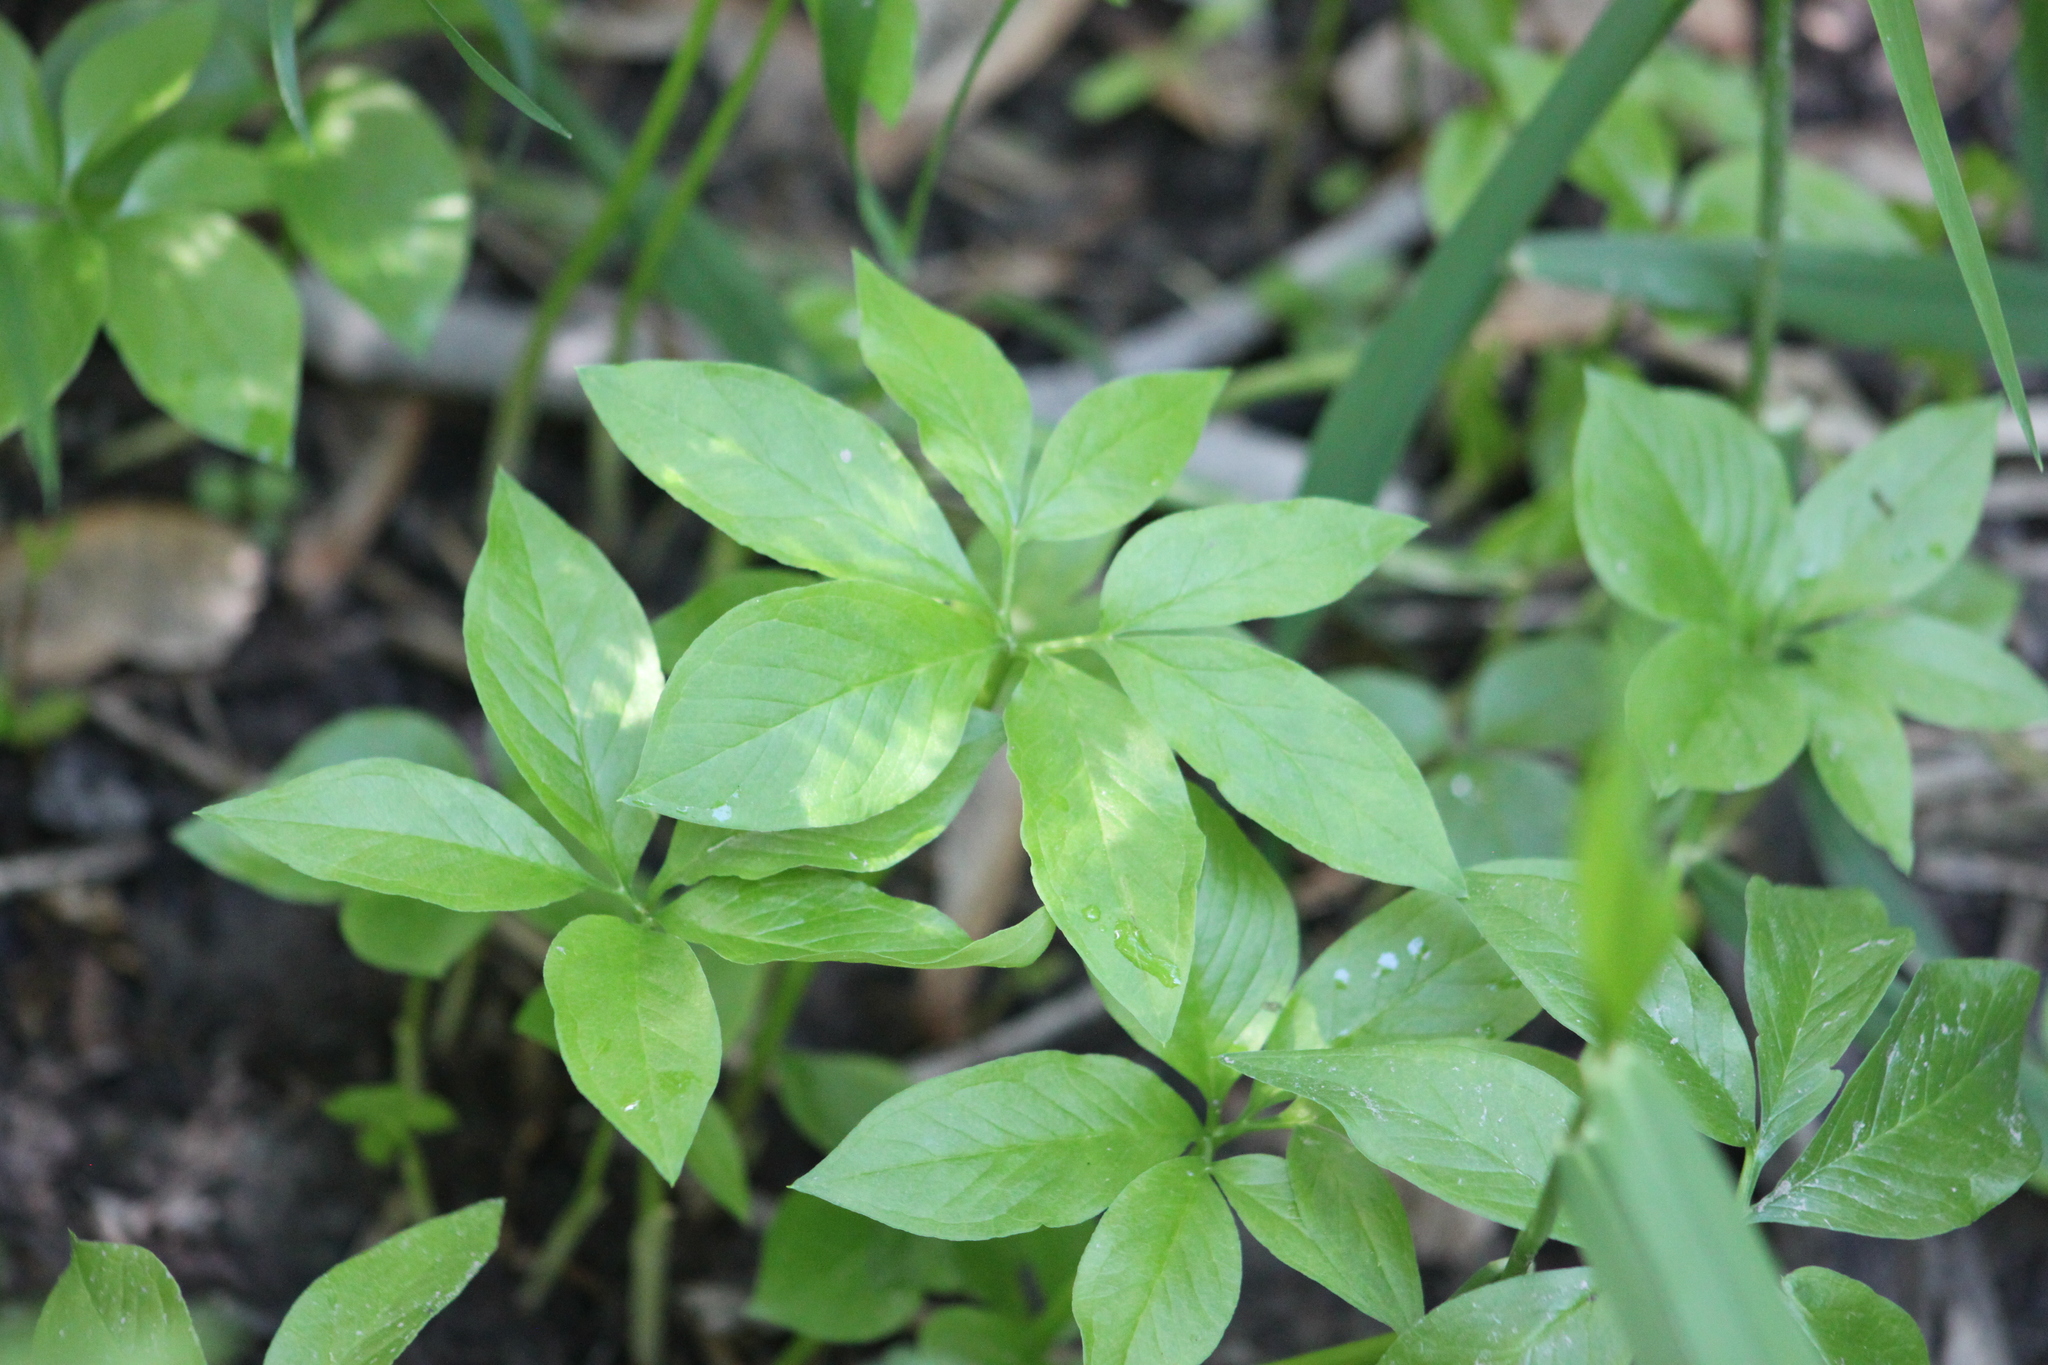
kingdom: Plantae
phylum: Tracheophyta
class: Liliopsida
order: Alismatales
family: Araceae
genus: Arisaema
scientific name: Arisaema dracontium
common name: Dragon-arum
